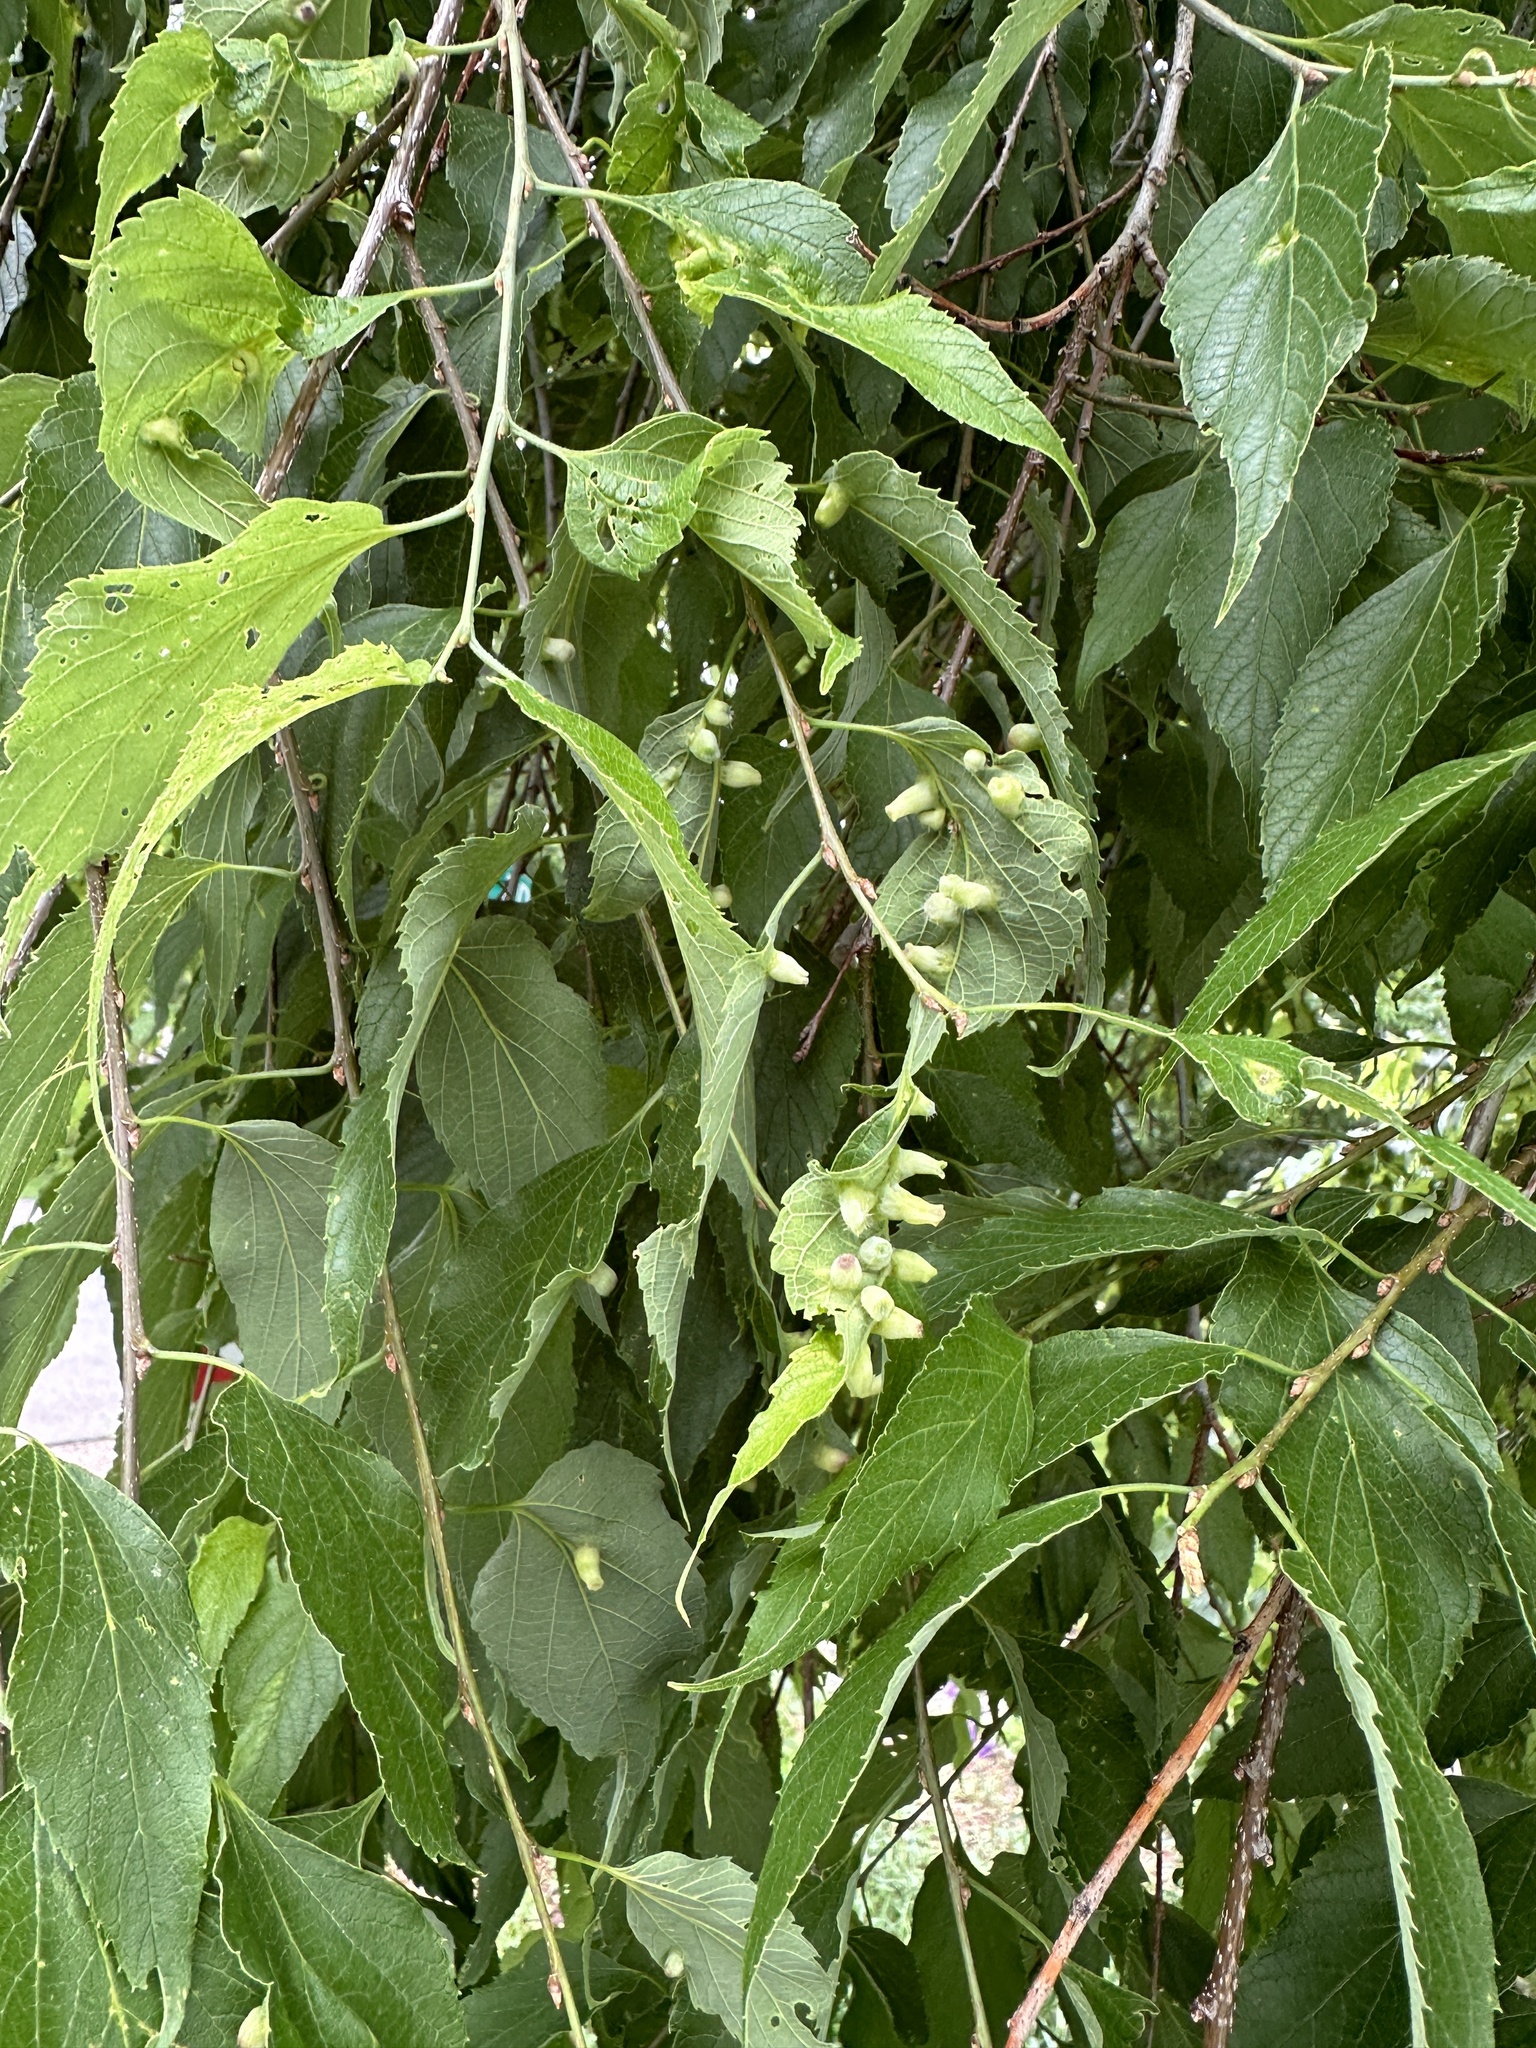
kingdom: Animalia
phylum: Arthropoda
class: Insecta
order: Hemiptera
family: Aphalaridae
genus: Pachypsylla
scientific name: Pachypsylla celtidismamma
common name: Hackberry nipplegall psyllid
